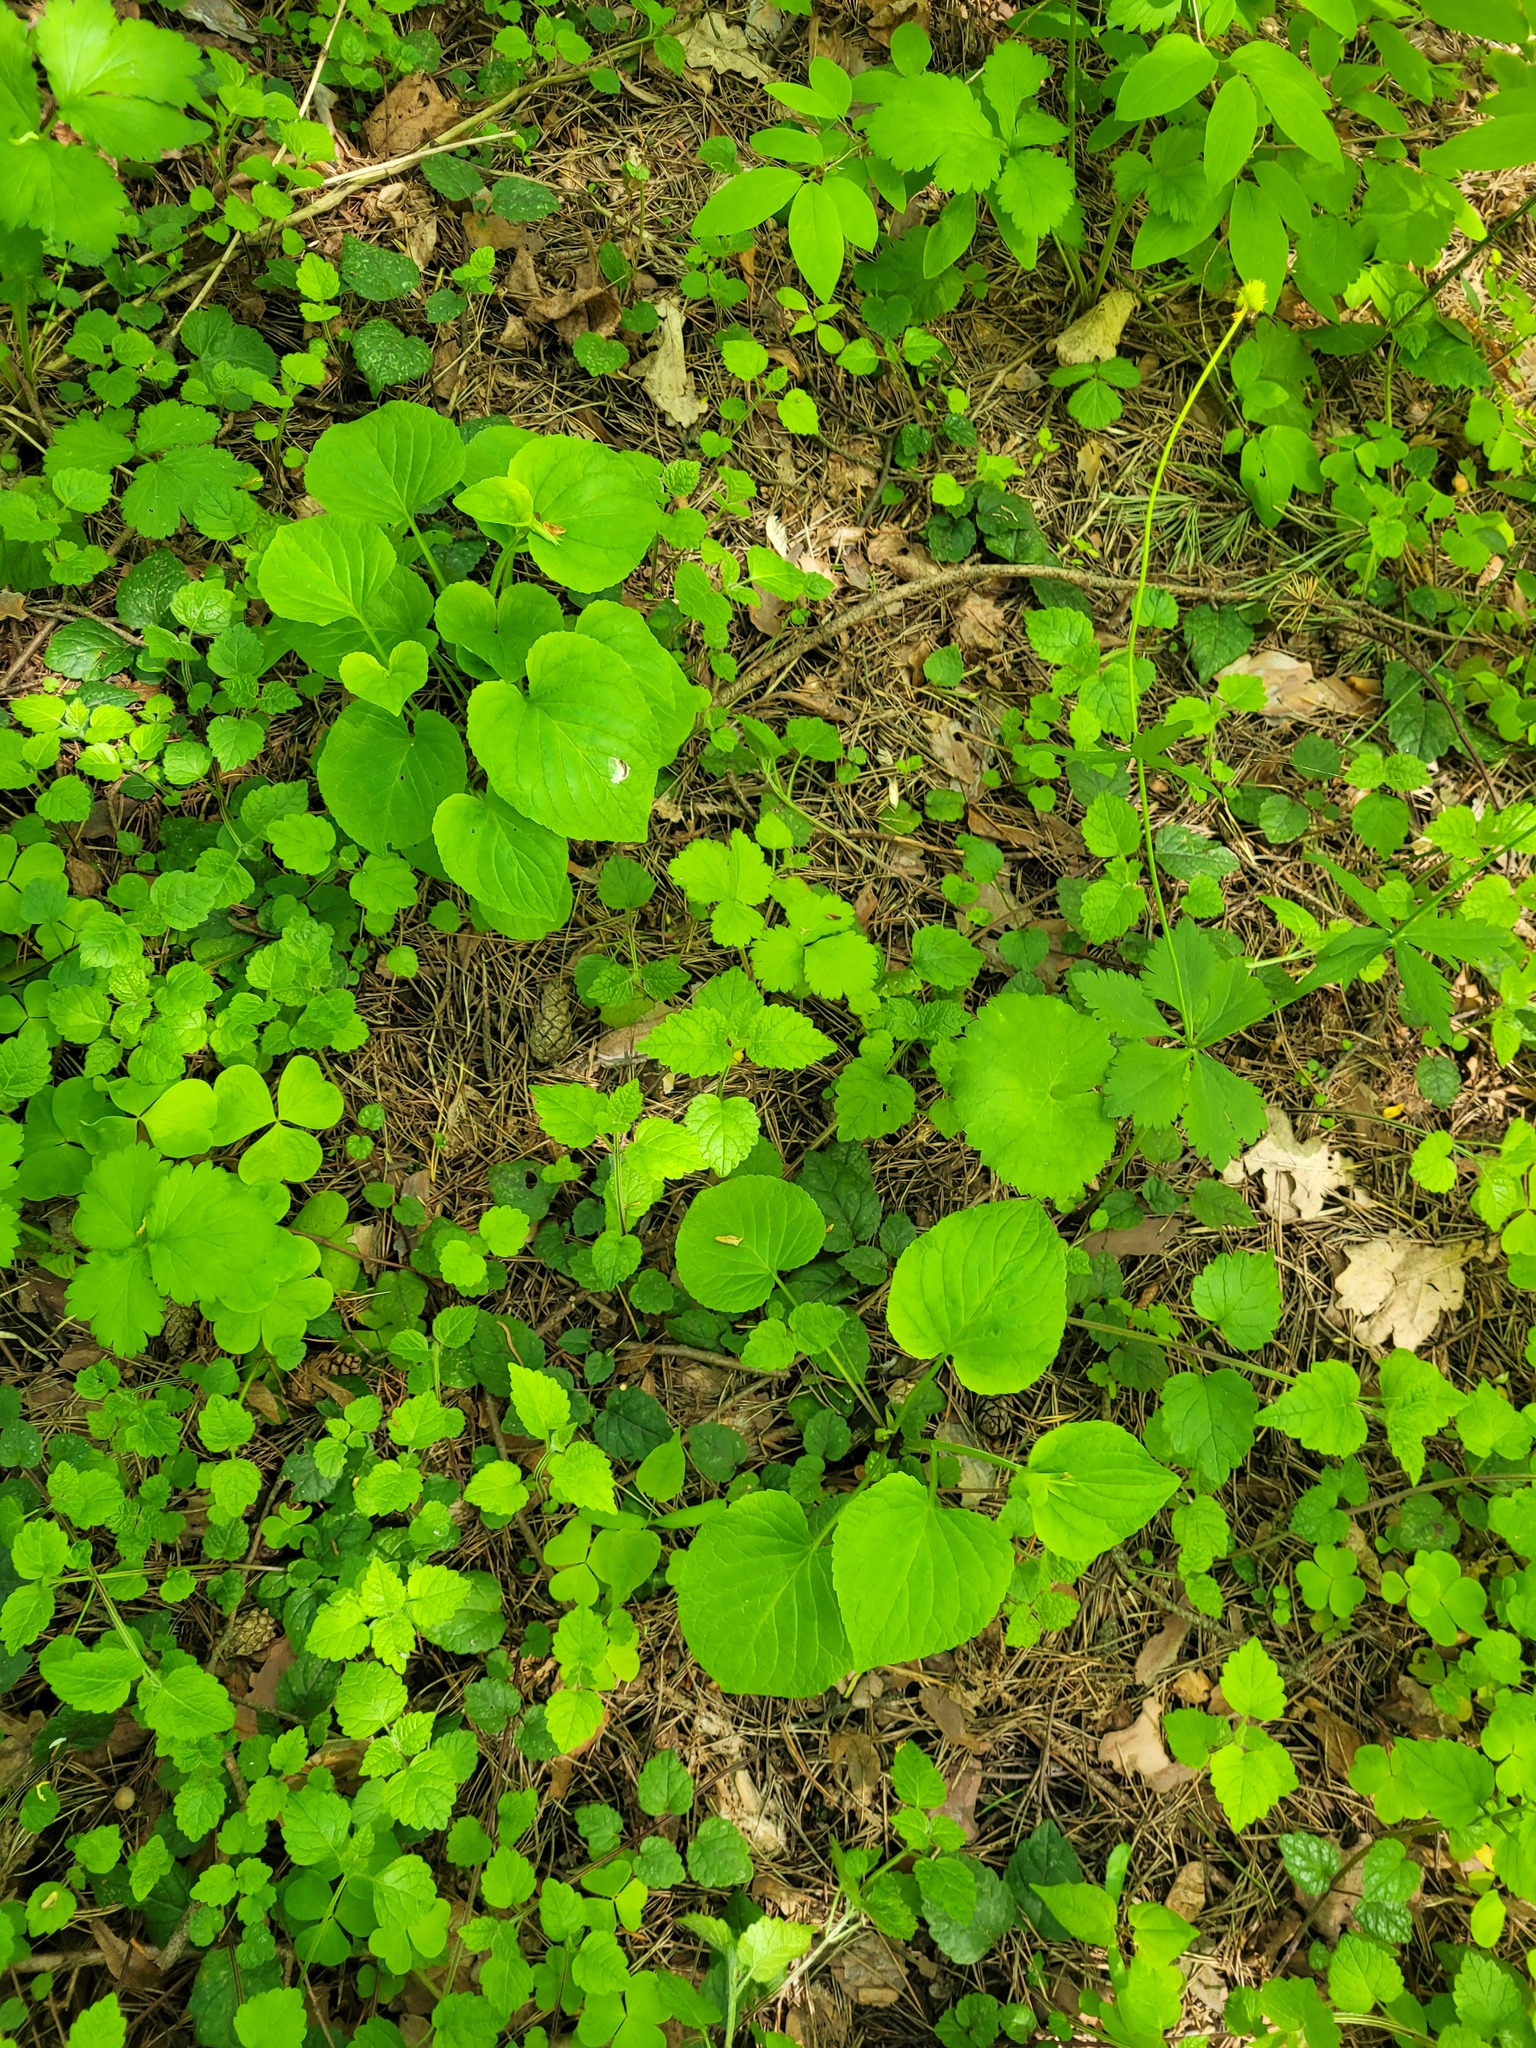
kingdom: Plantae
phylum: Tracheophyta
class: Magnoliopsida
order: Malpighiales
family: Violaceae
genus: Viola
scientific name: Viola mirabilis
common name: Wonder violet
